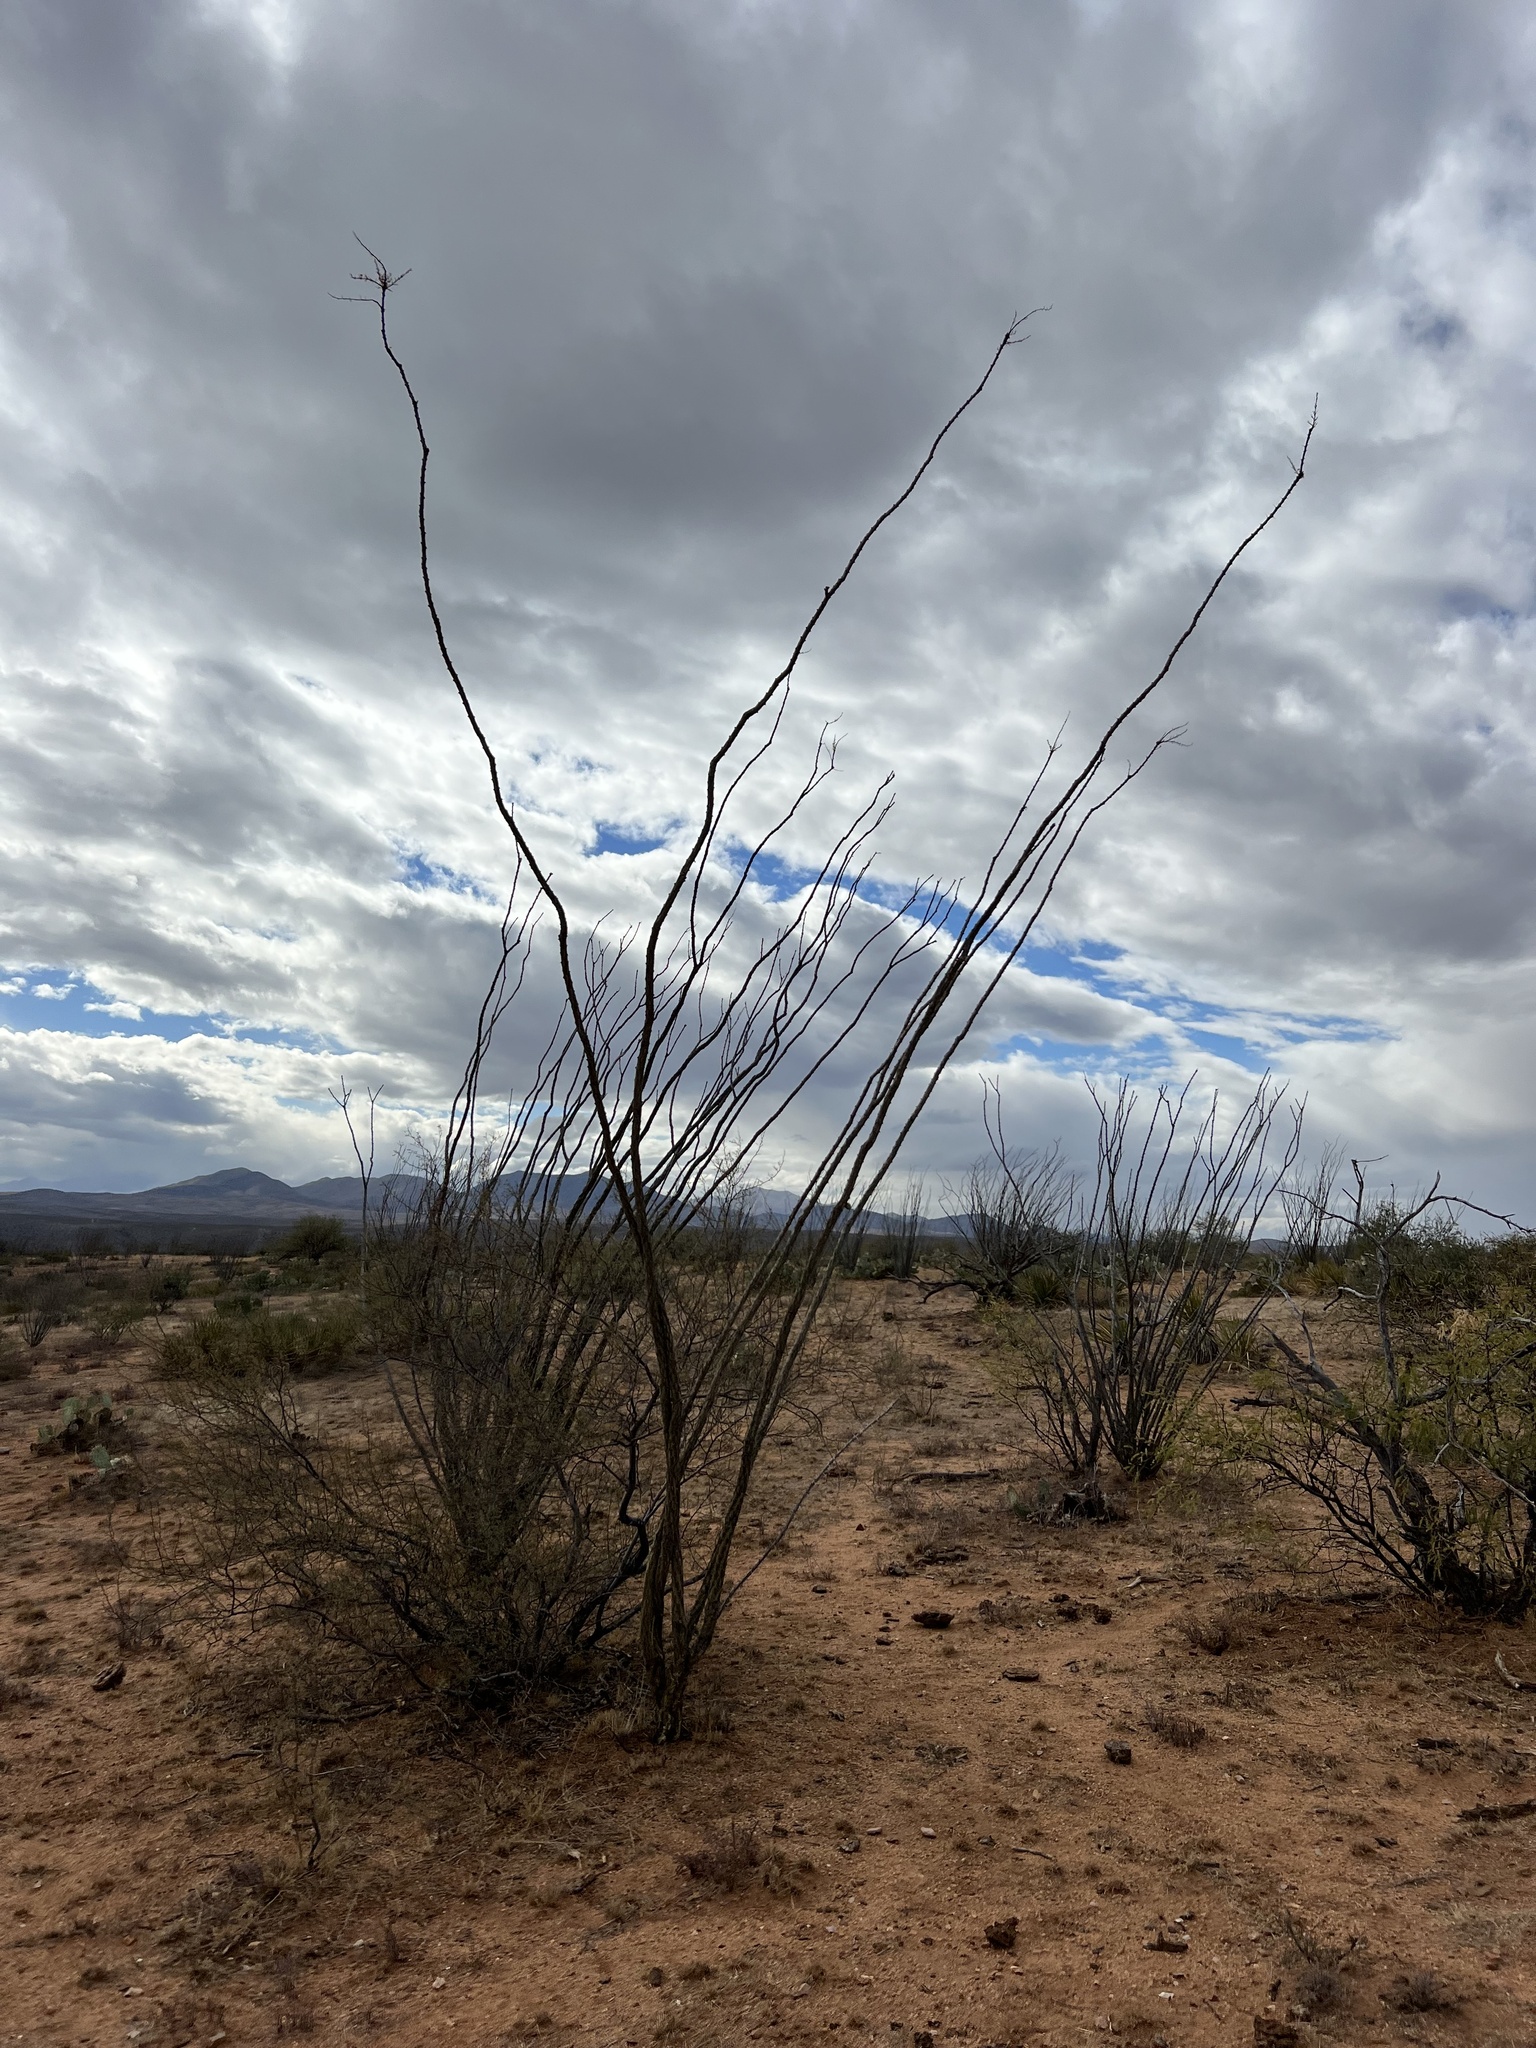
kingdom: Plantae
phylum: Tracheophyta
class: Magnoliopsida
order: Ericales
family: Fouquieriaceae
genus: Fouquieria
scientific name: Fouquieria splendens
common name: Vine-cactus
